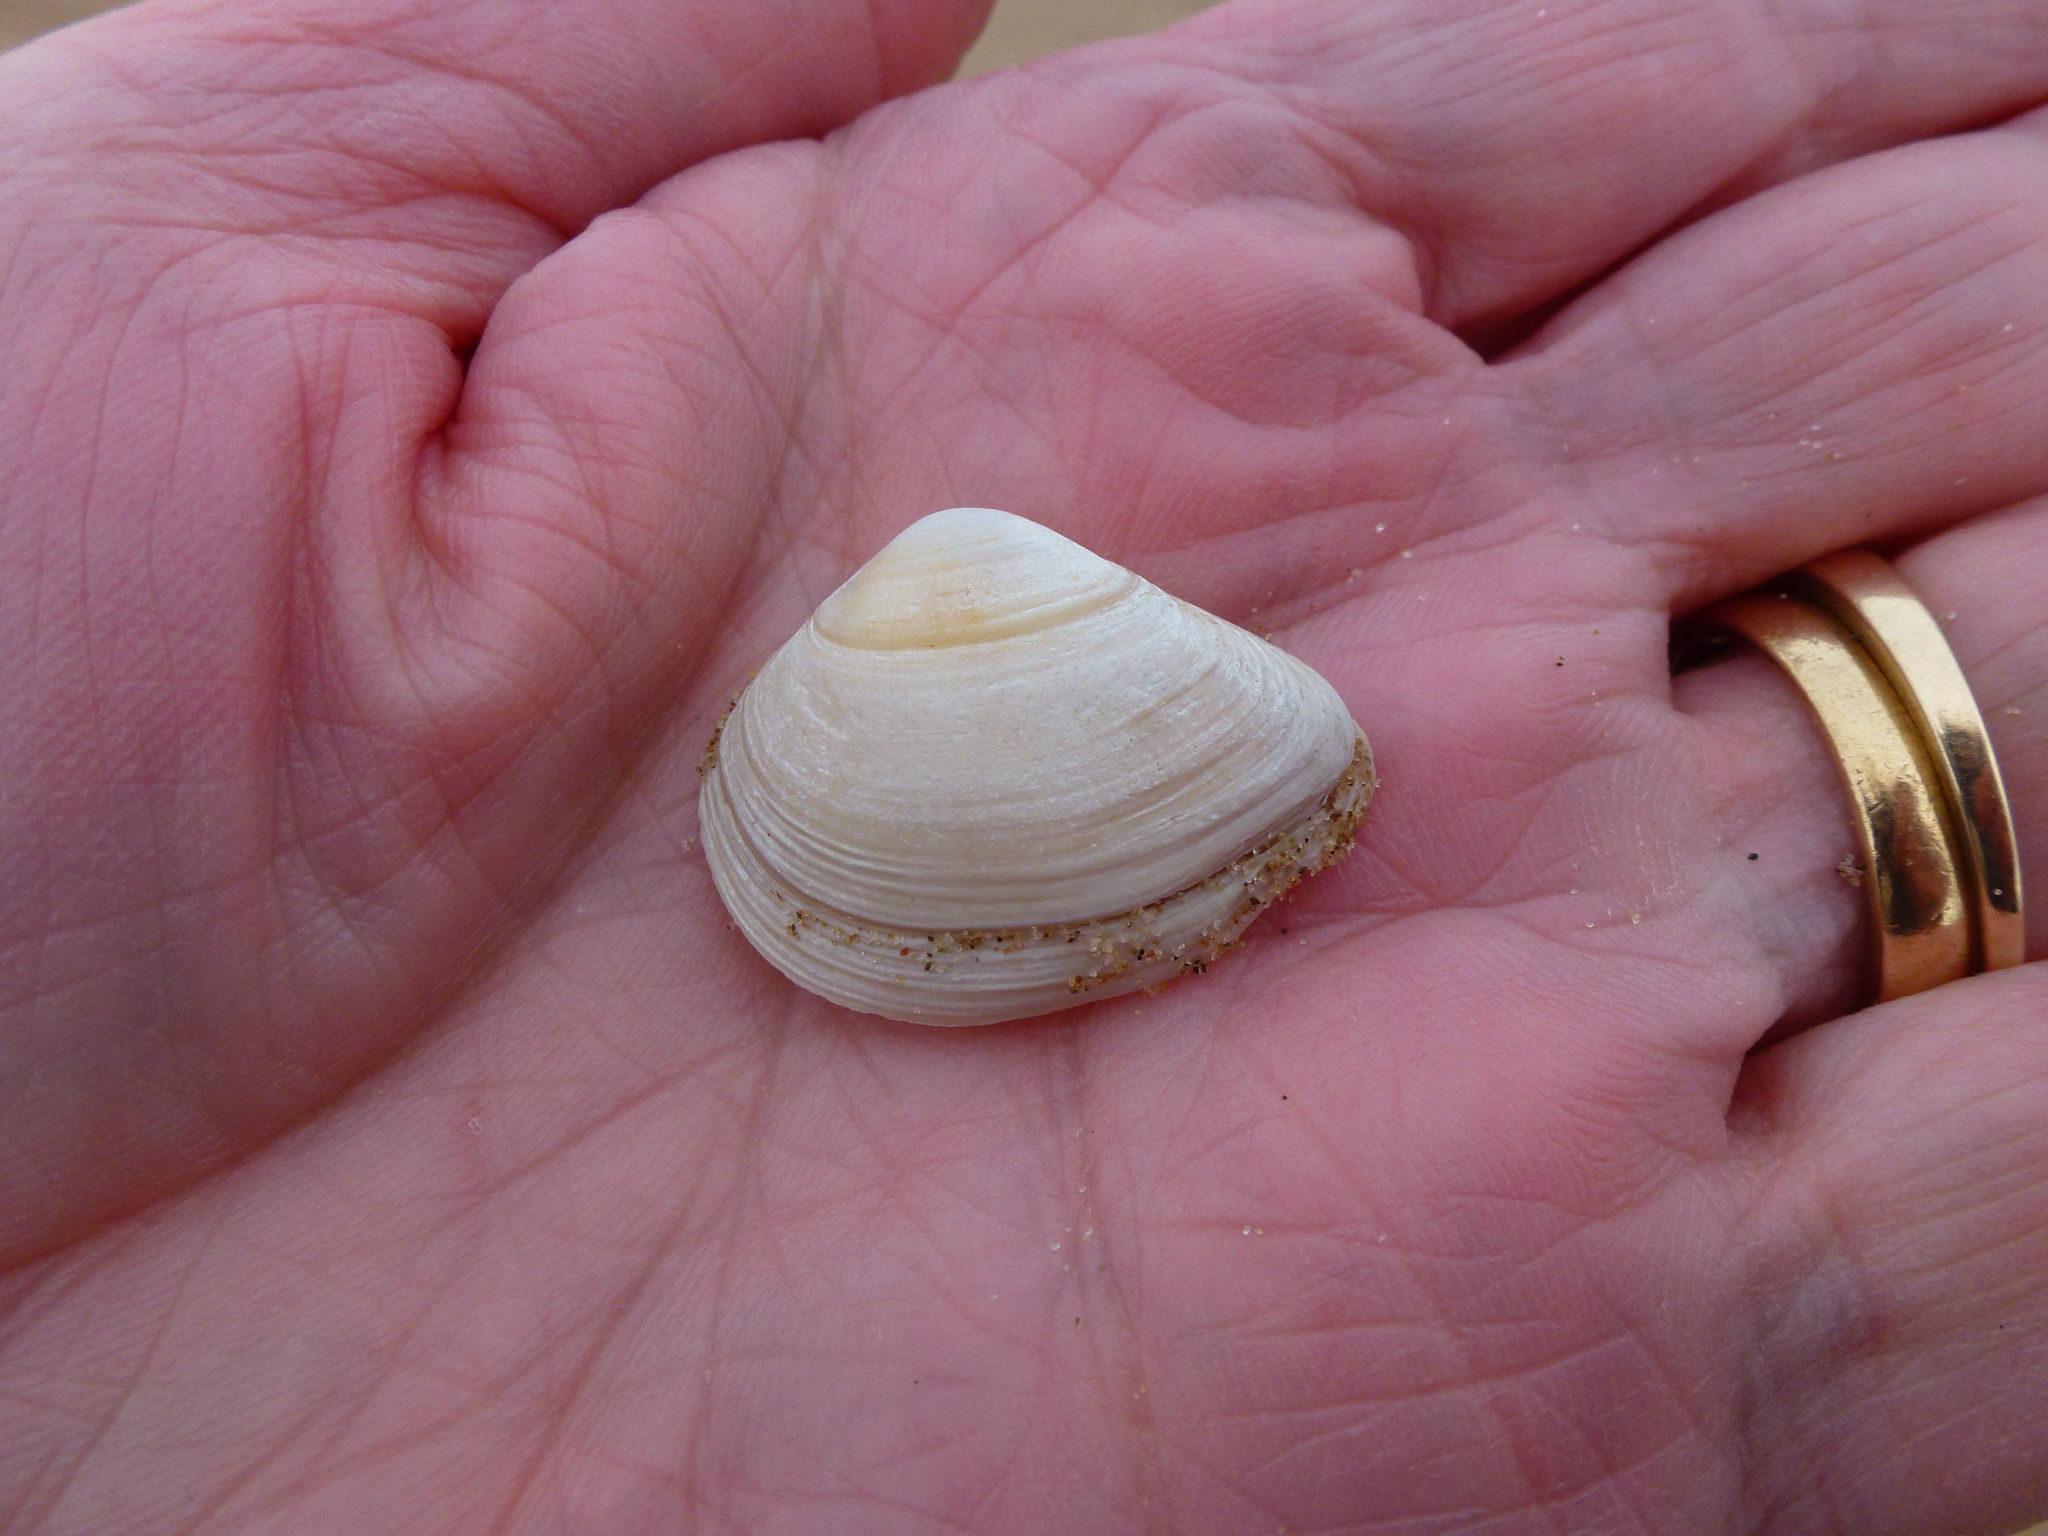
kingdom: Animalia
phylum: Mollusca
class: Bivalvia
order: Venerida
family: Mactridae
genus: Spisula
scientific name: Spisula subtruncata
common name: Cut trough shell
